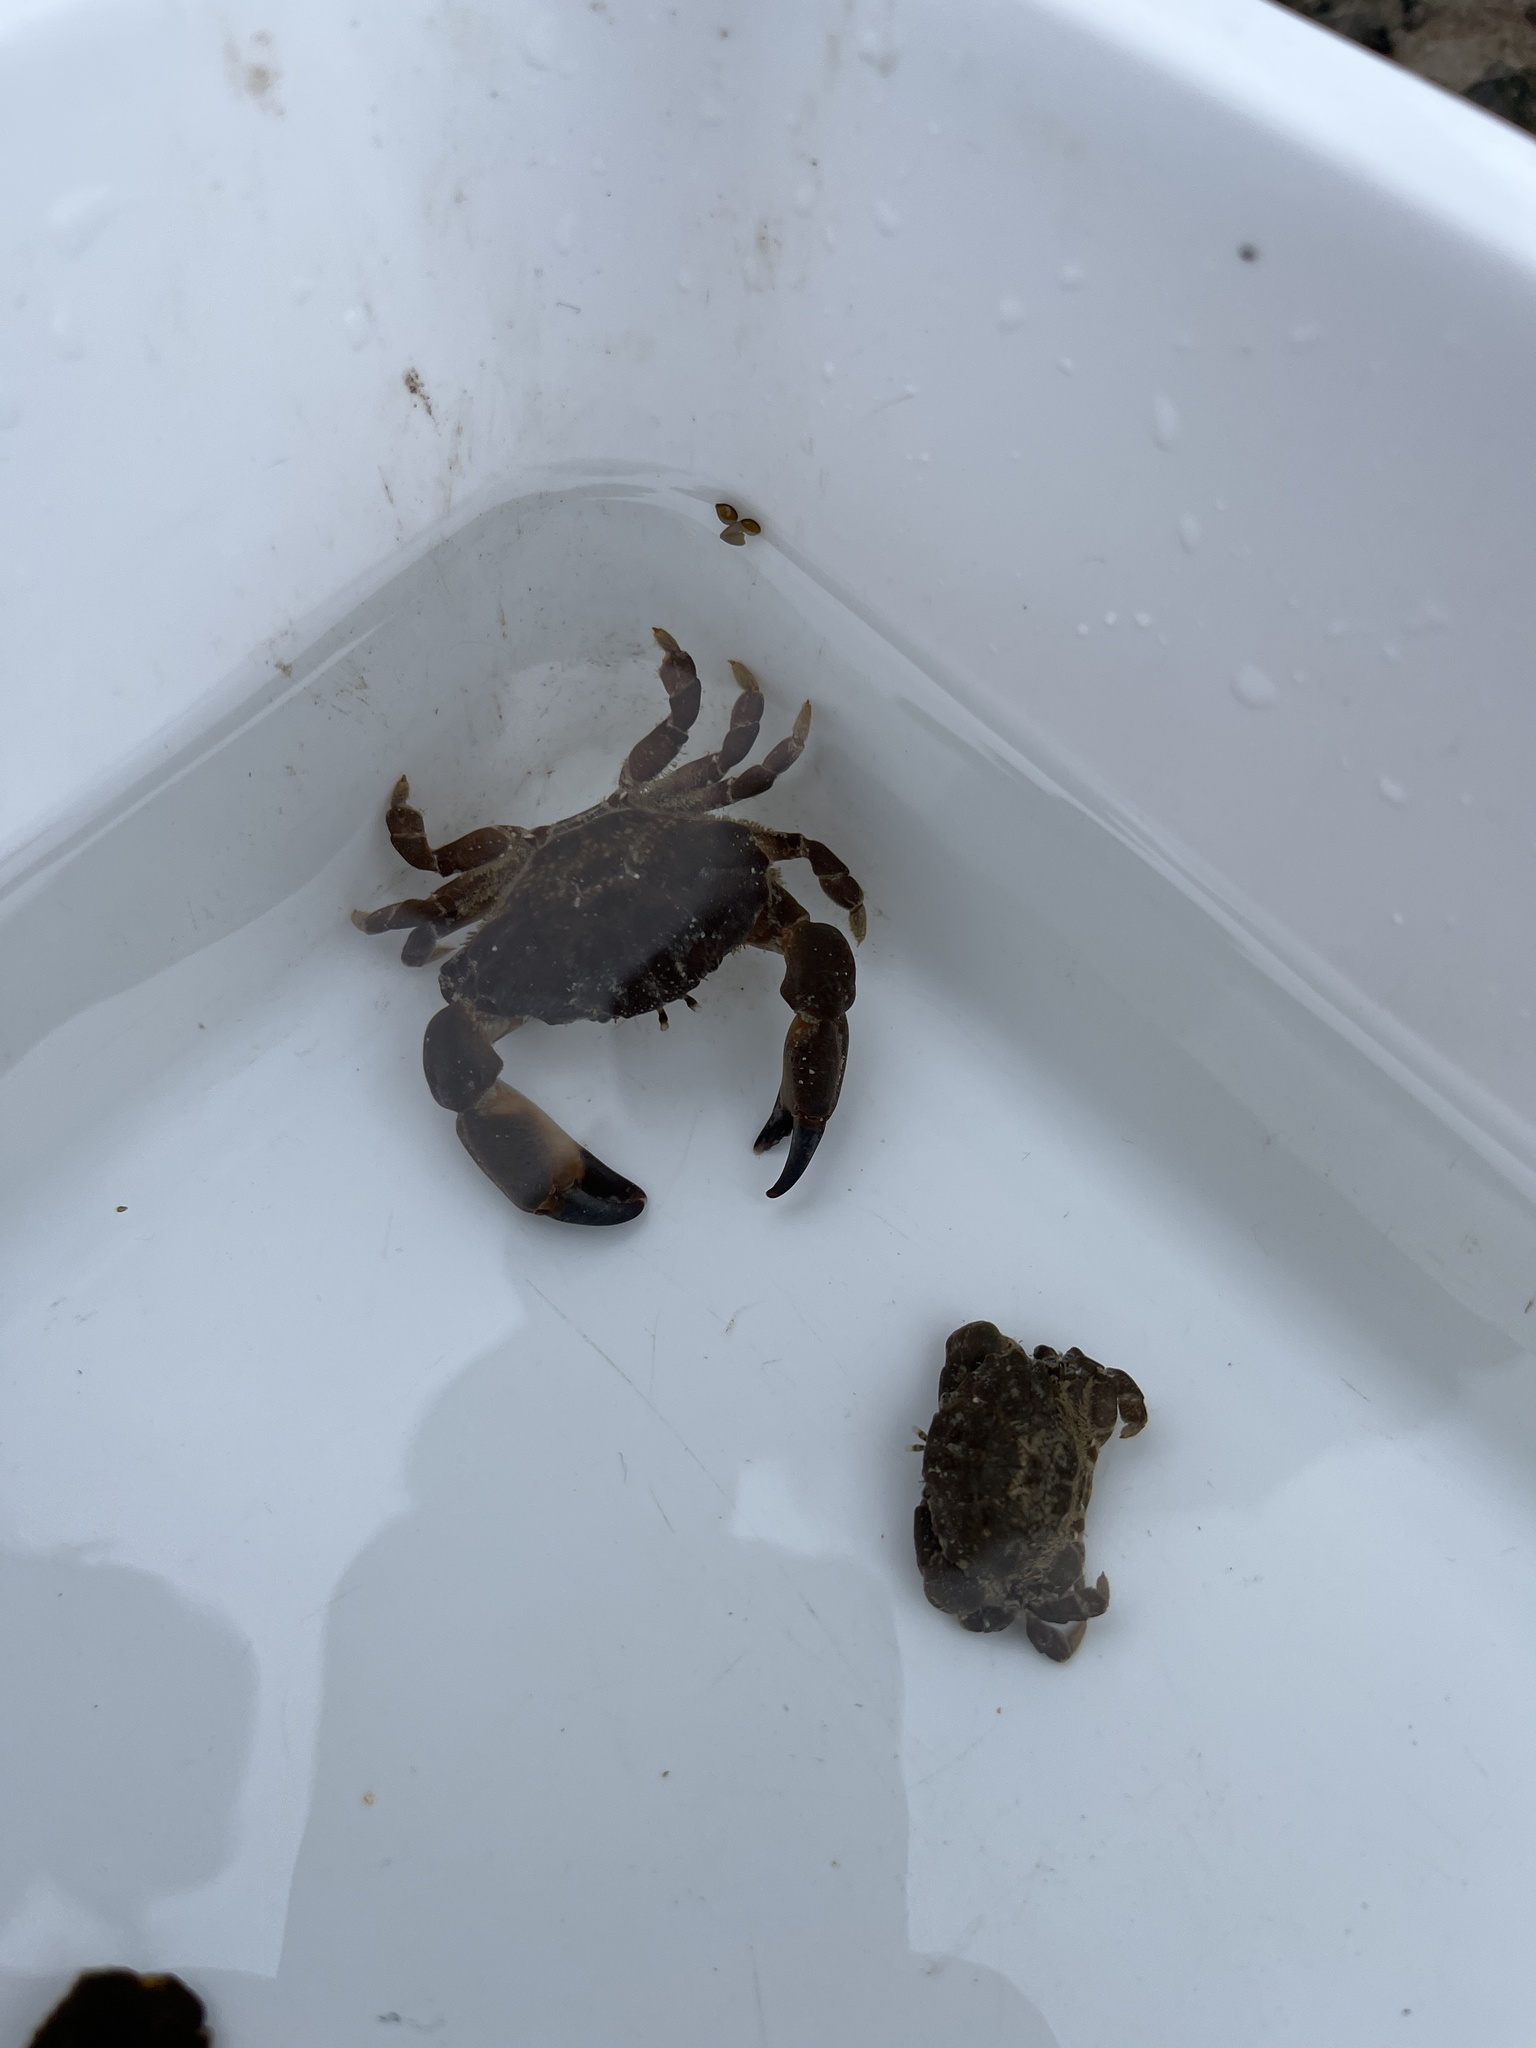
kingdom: Animalia
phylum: Arthropoda
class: Malacostraca
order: Decapoda
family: Xanthidae
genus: Xantho
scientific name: Xantho hydrophilus
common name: Montagu's crab
